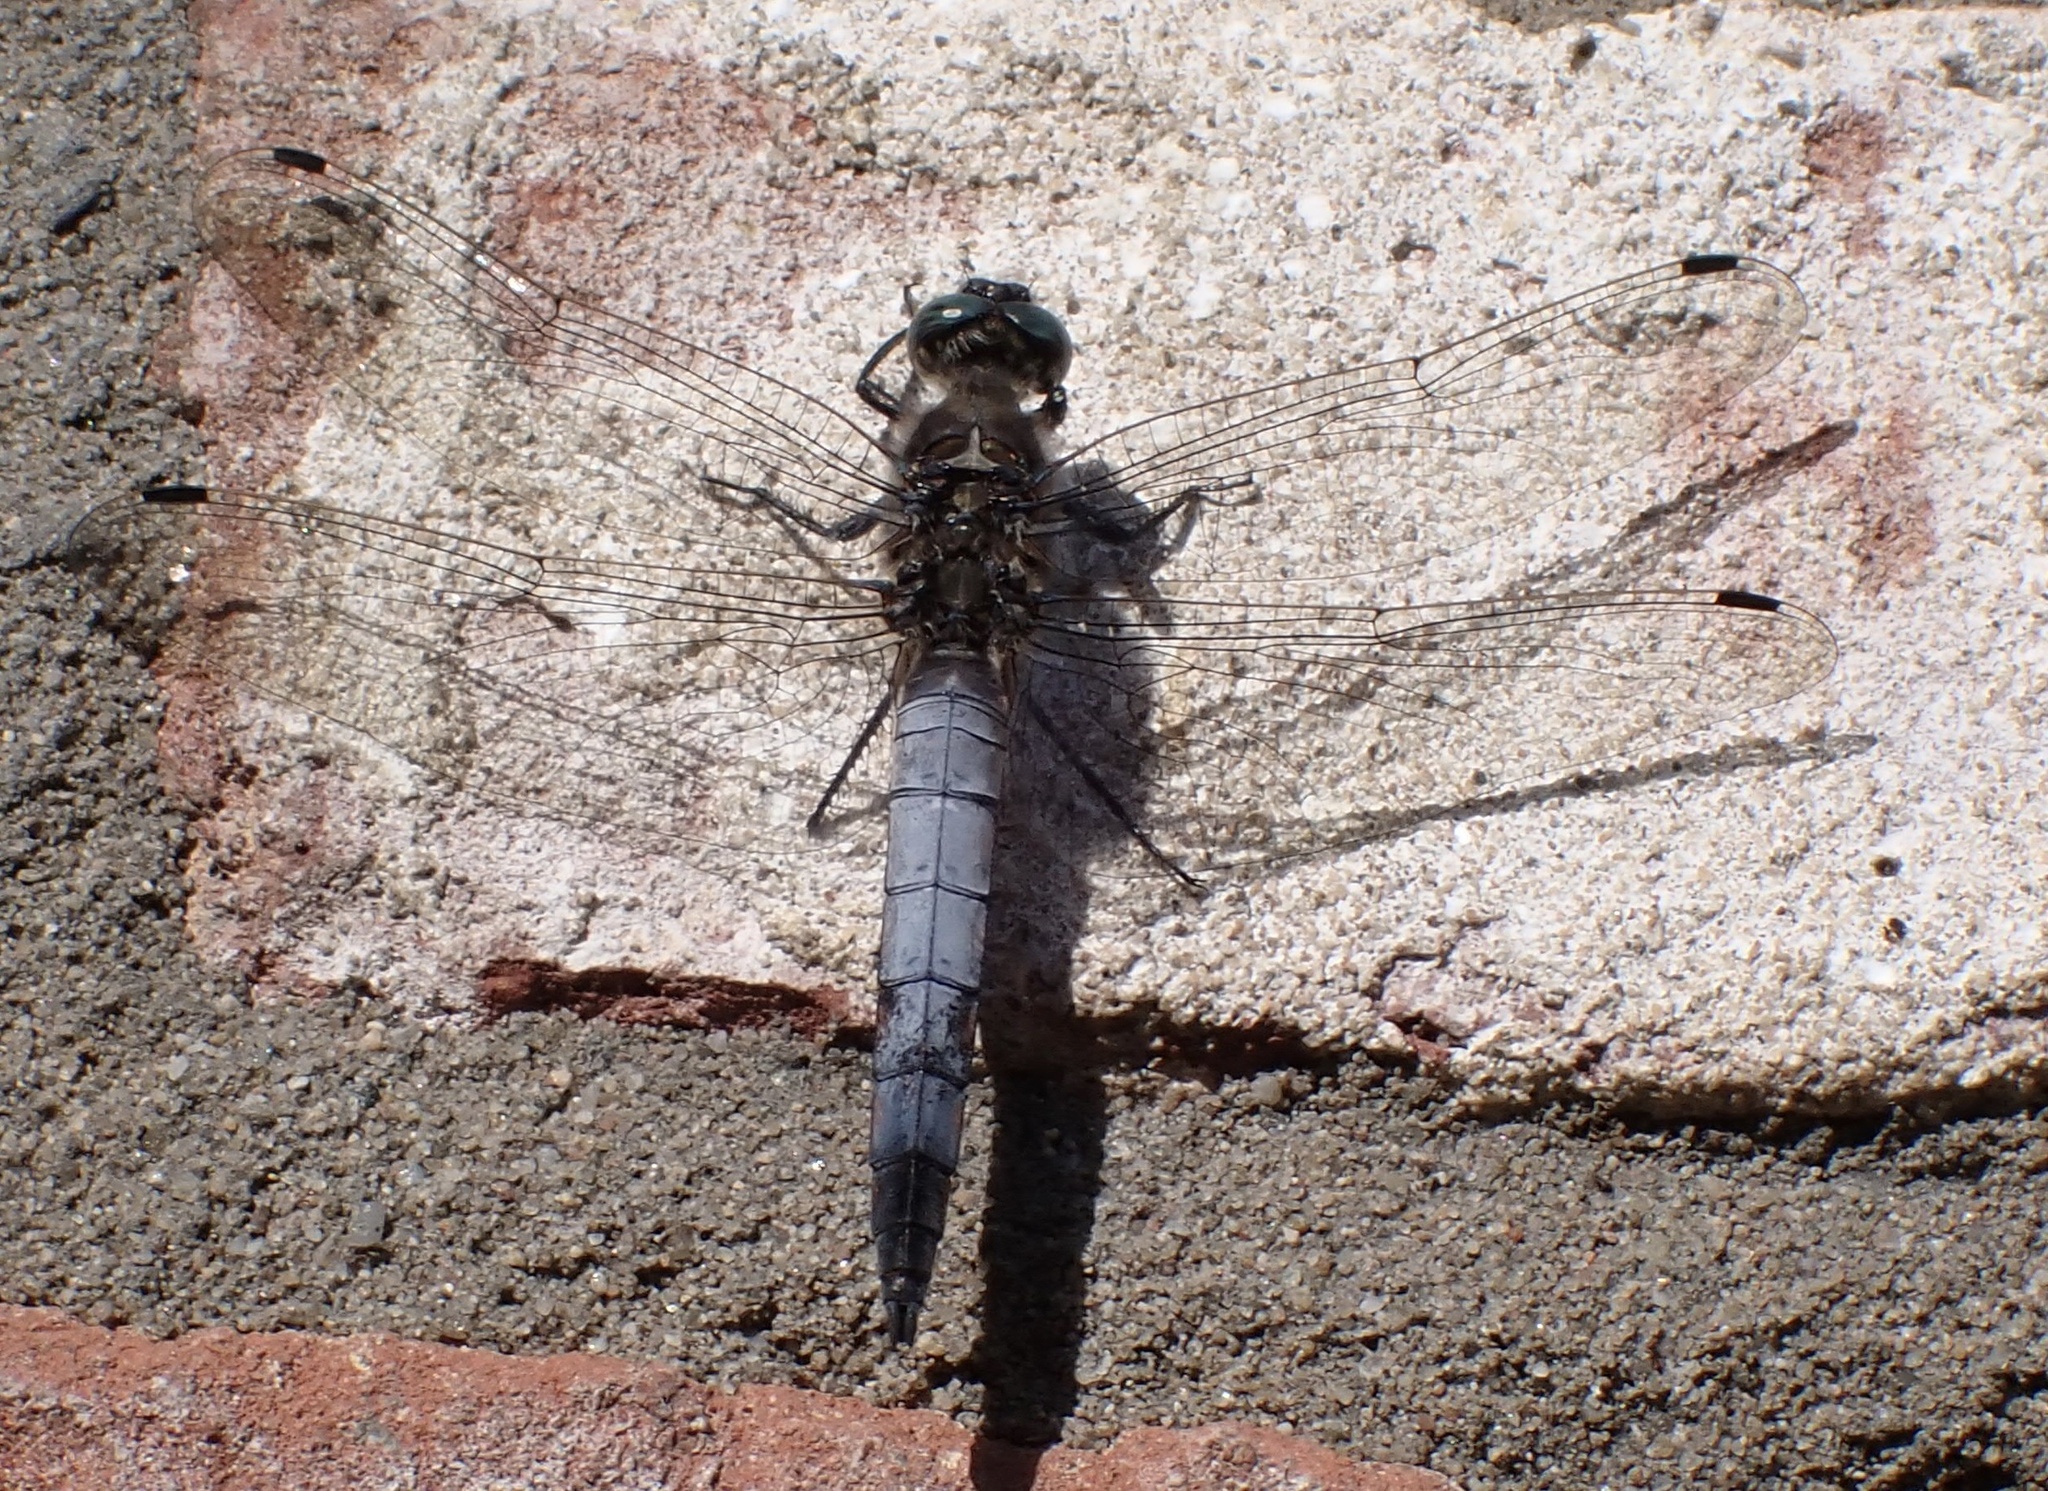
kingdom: Animalia
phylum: Arthropoda
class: Insecta
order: Odonata
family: Libellulidae
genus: Orthetrum
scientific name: Orthetrum cancellatum
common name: Black-tailed skimmer
